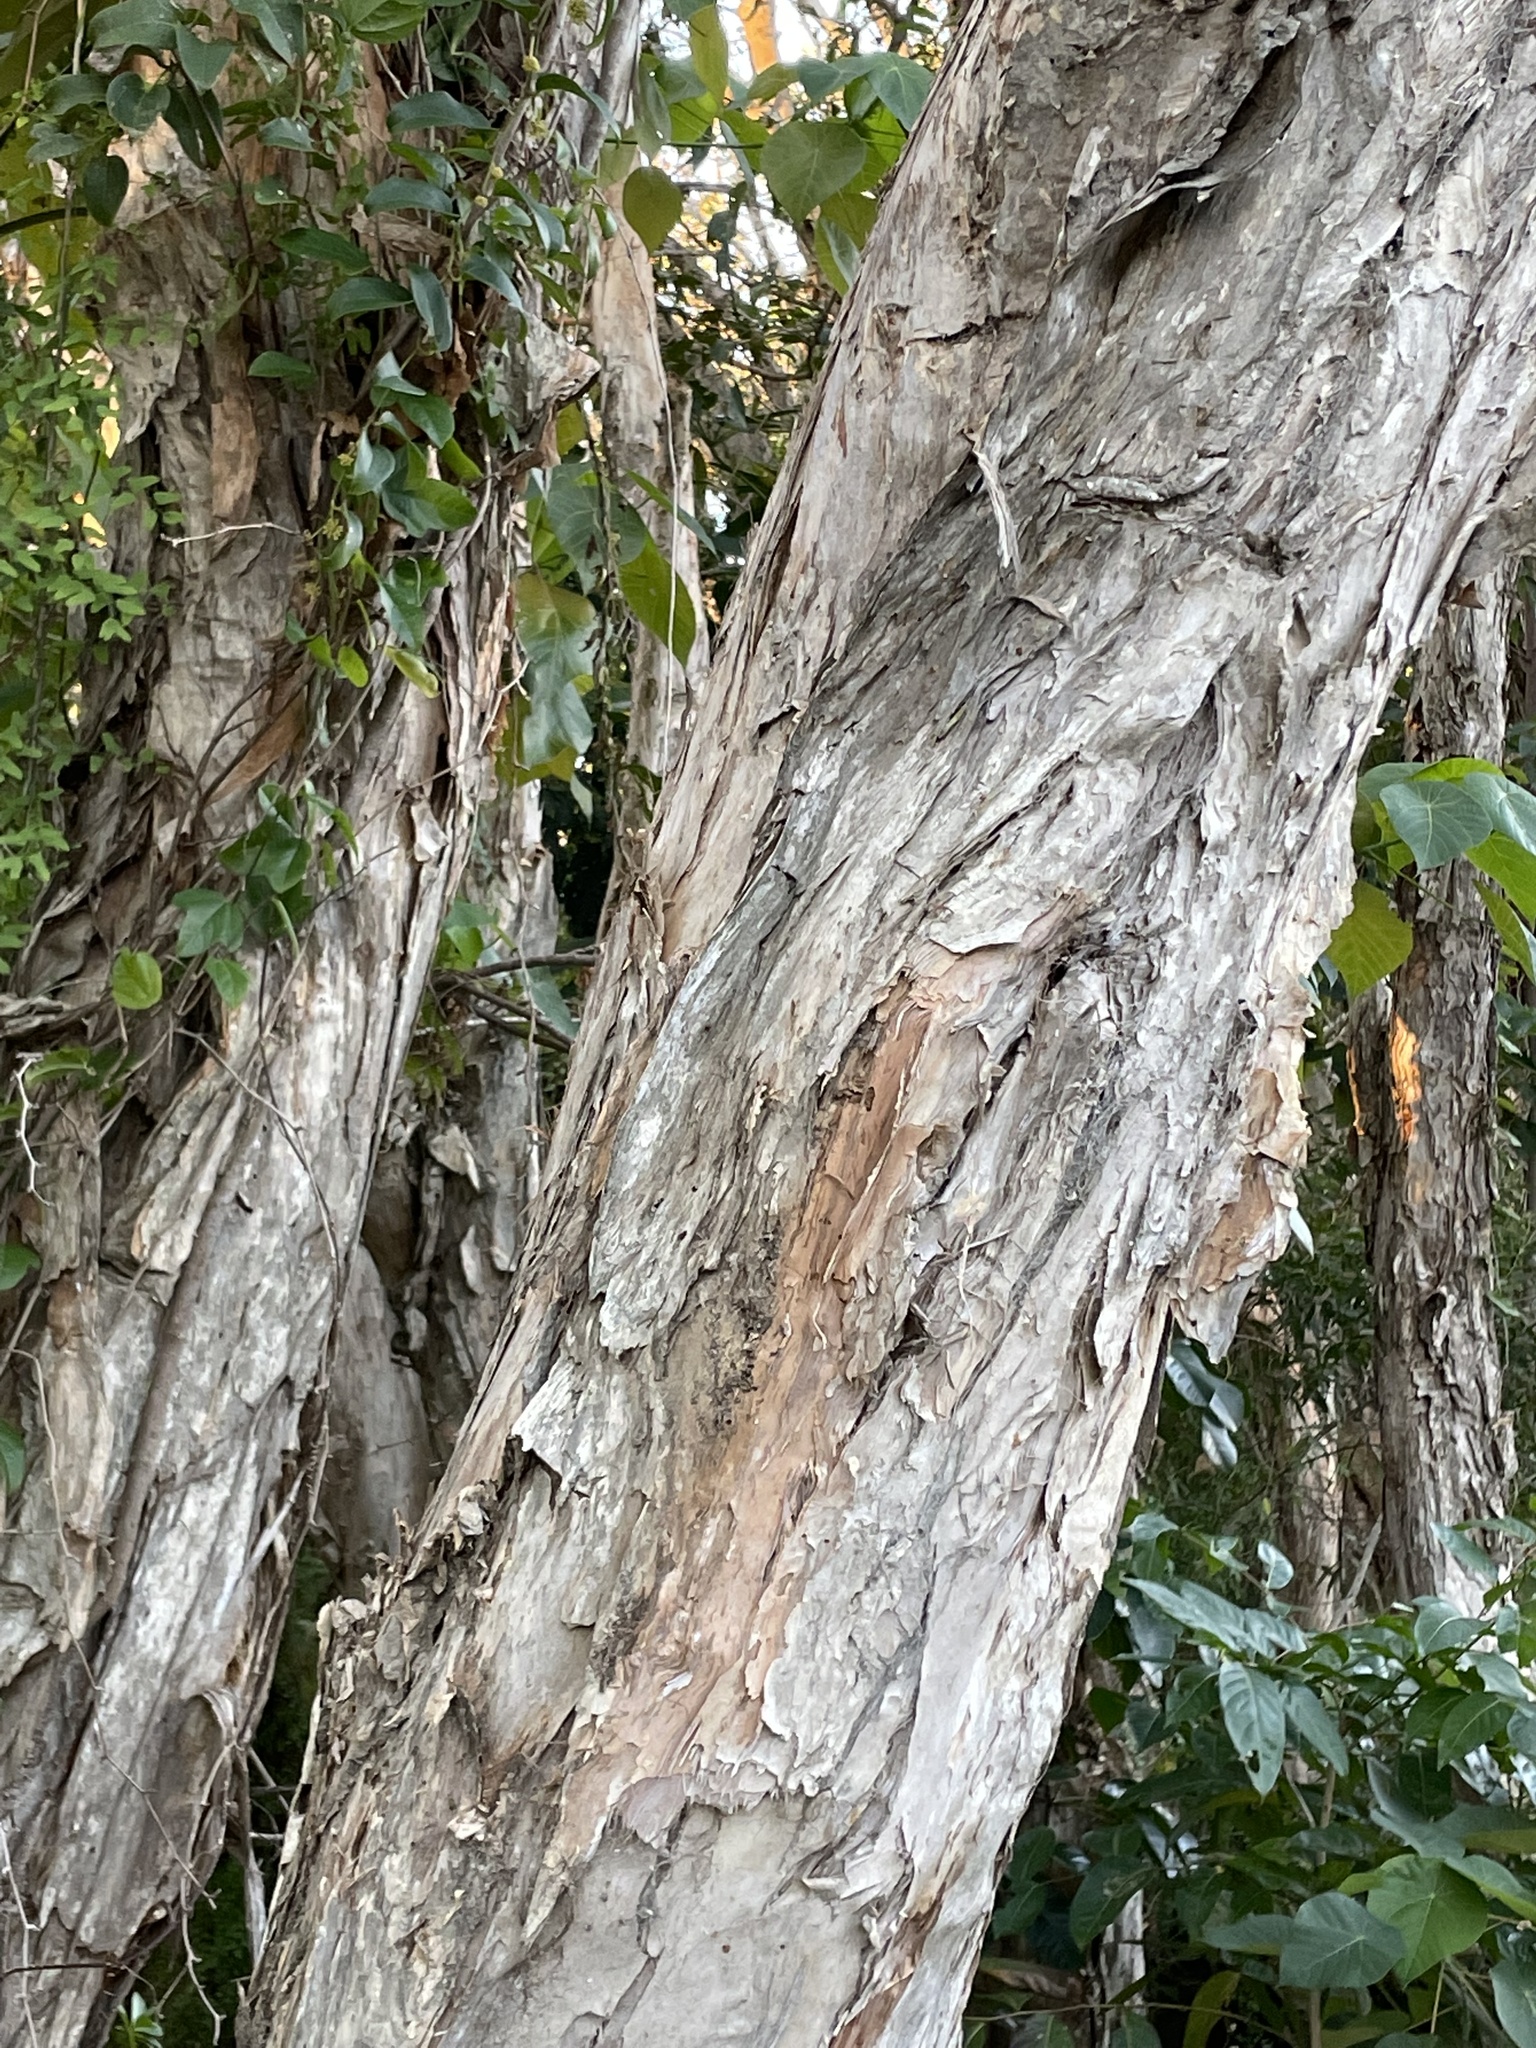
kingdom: Plantae
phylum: Tracheophyta
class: Magnoliopsida
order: Myrtales
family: Myrtaceae
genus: Melaleuca
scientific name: Melaleuca quinquenervia
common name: Punktree
